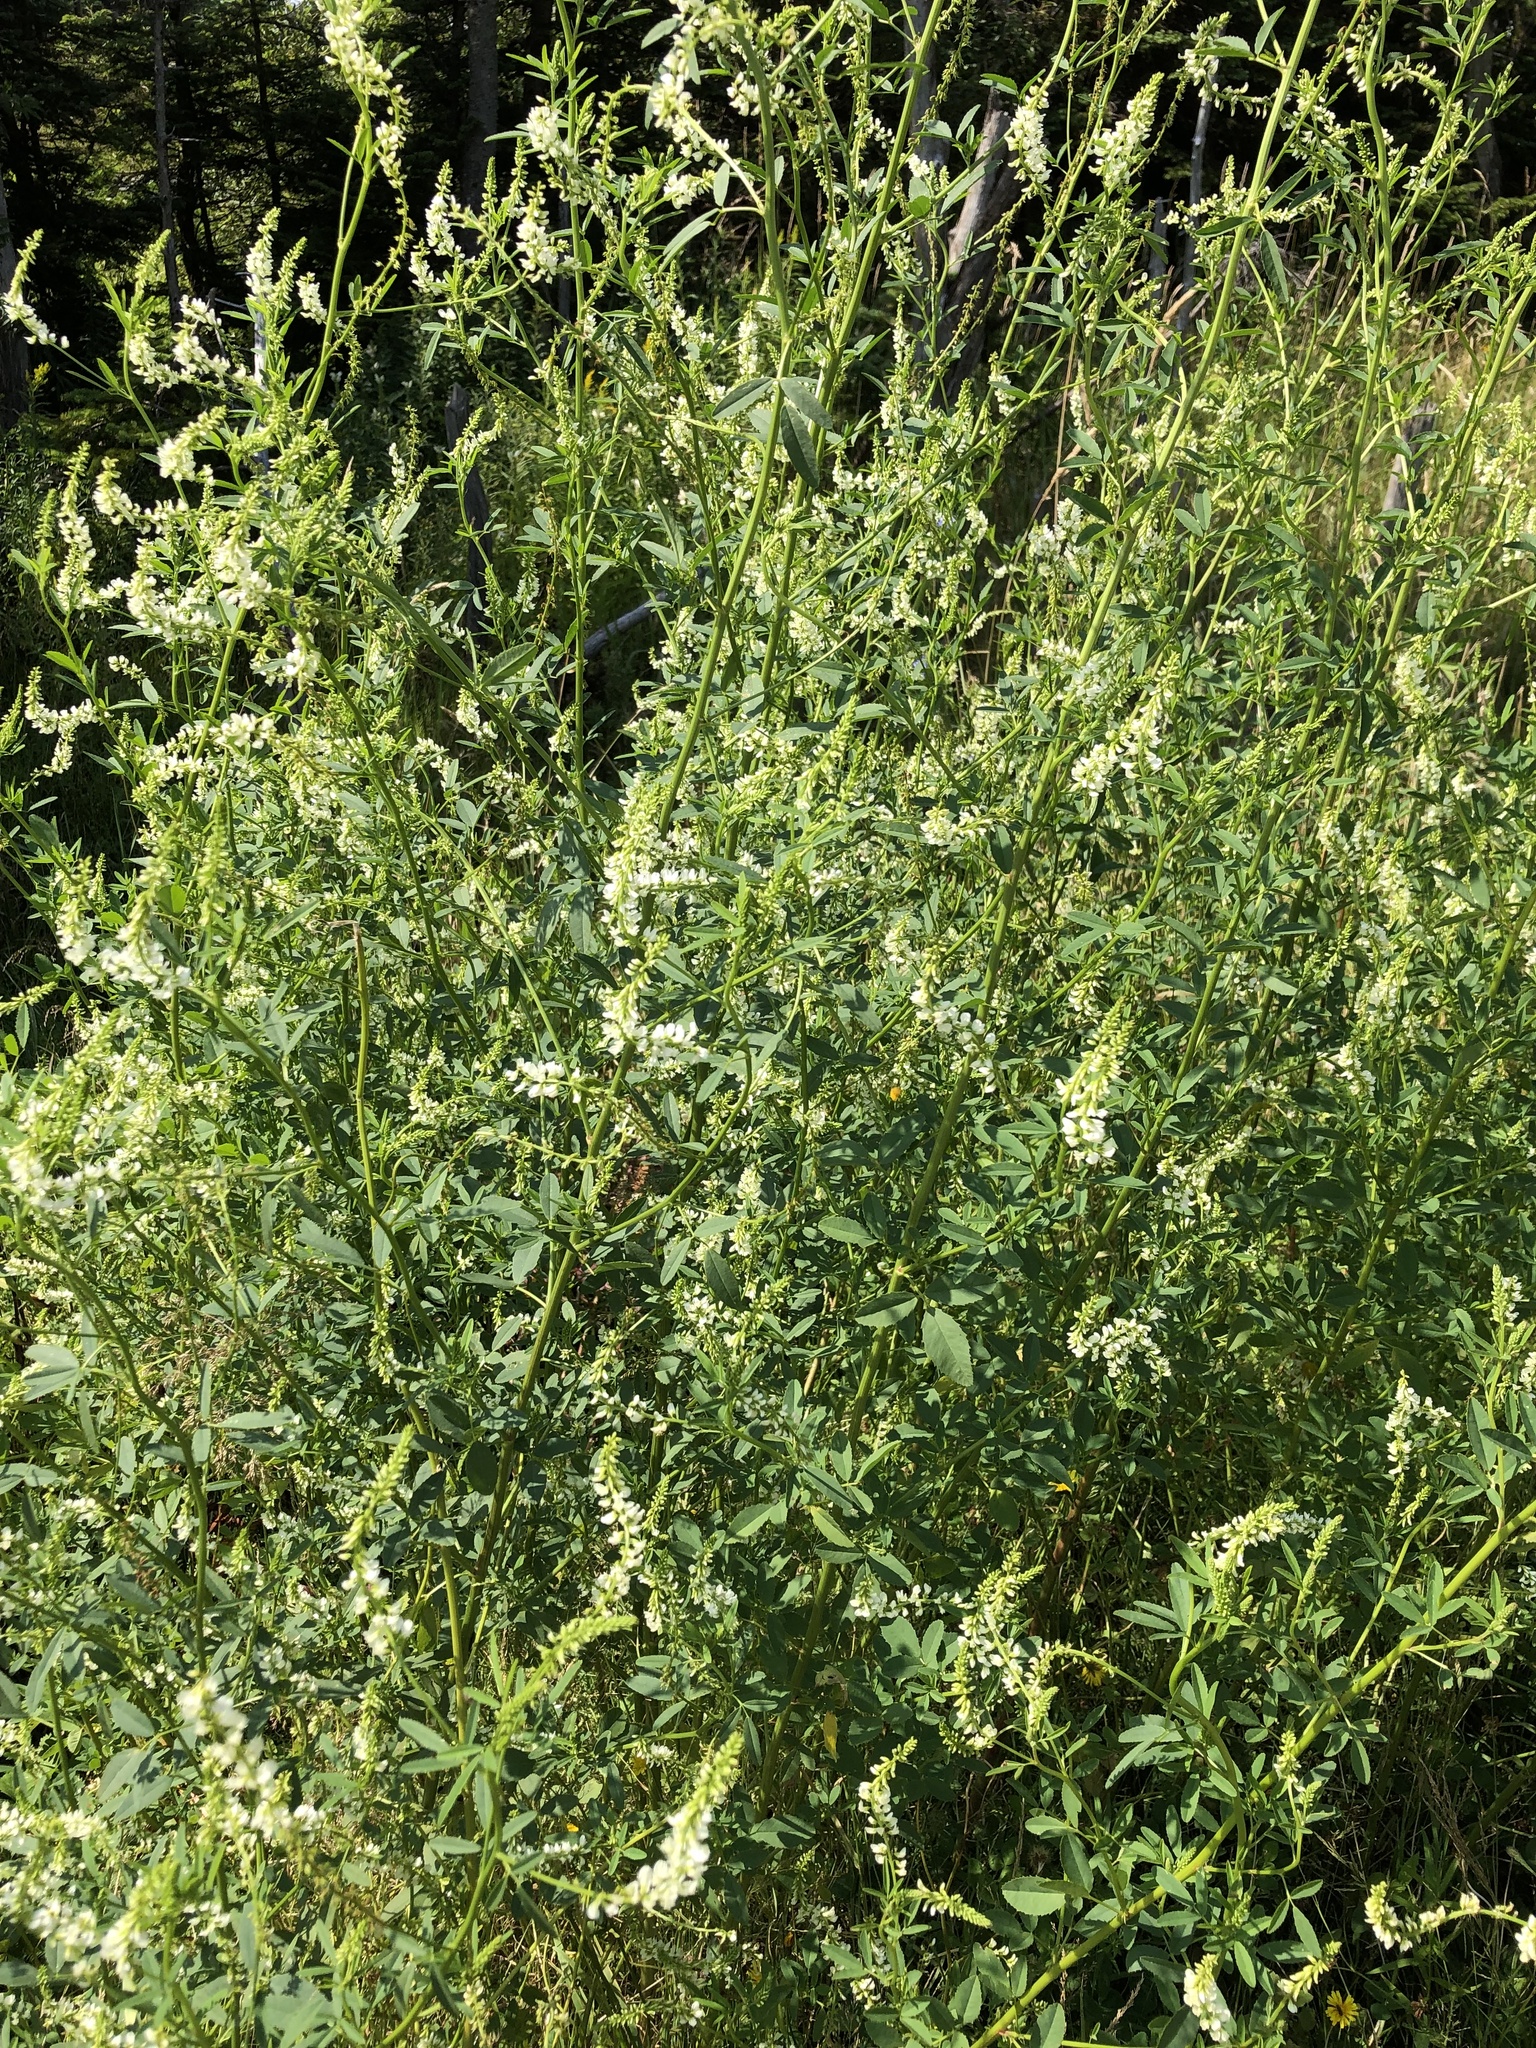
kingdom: Plantae
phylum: Tracheophyta
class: Magnoliopsida
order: Fabales
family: Fabaceae
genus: Melilotus
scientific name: Melilotus albus
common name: White melilot
